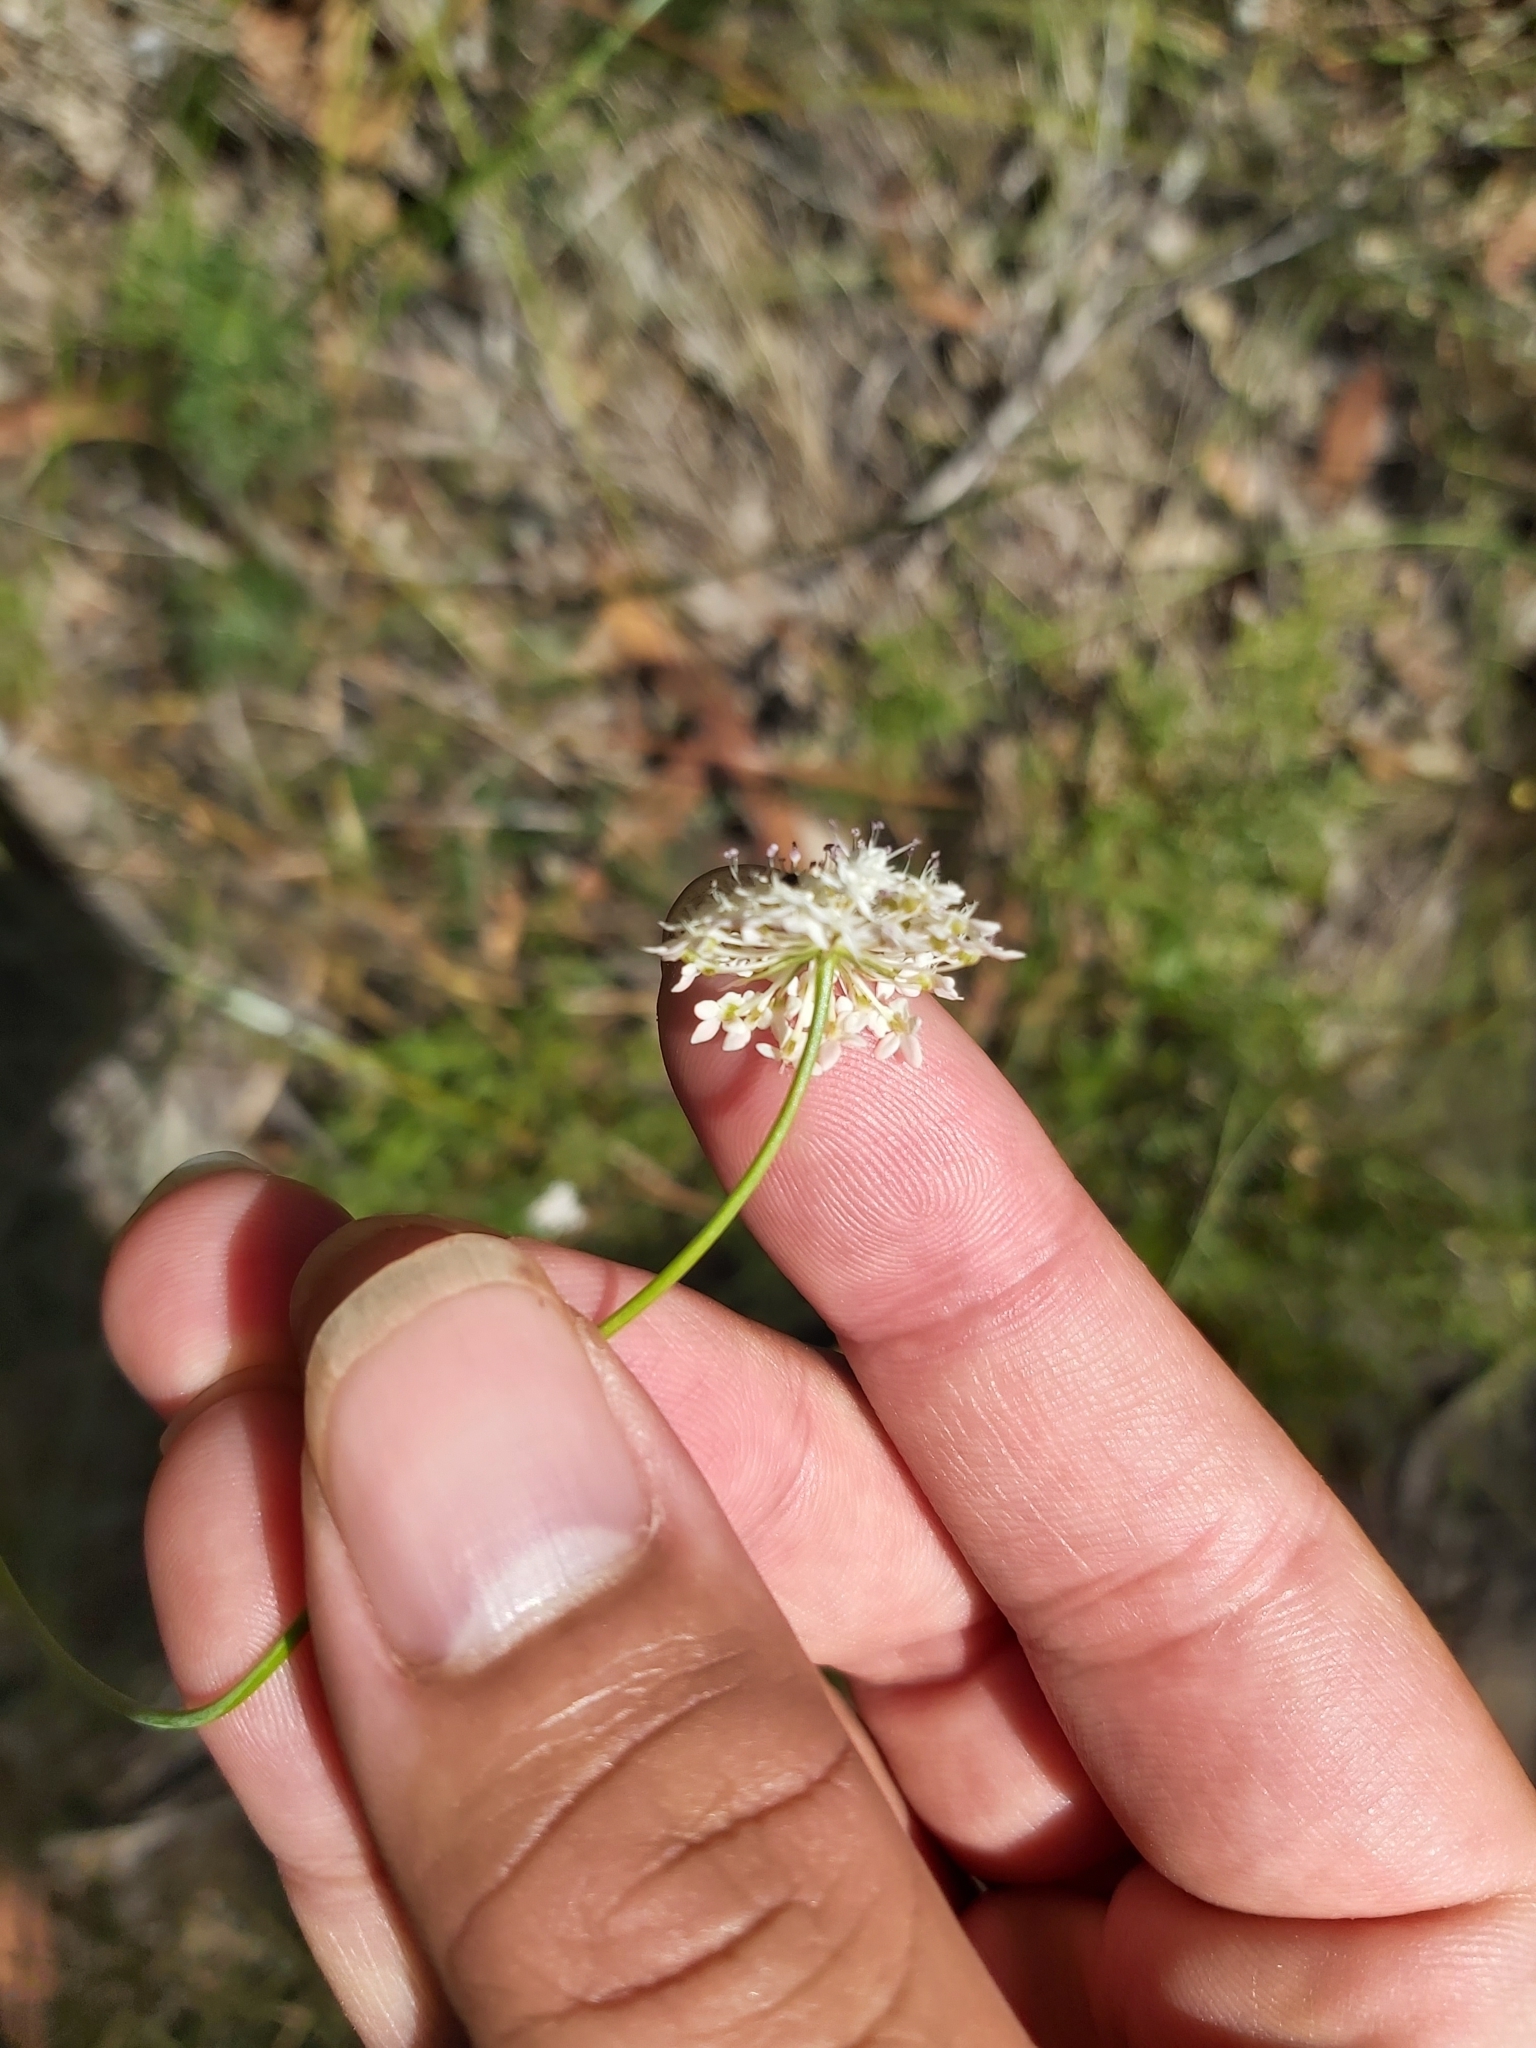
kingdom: Plantae
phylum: Tracheophyta
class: Magnoliopsida
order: Apiales
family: Araliaceae
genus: Trachymene
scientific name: Trachymene incisa
